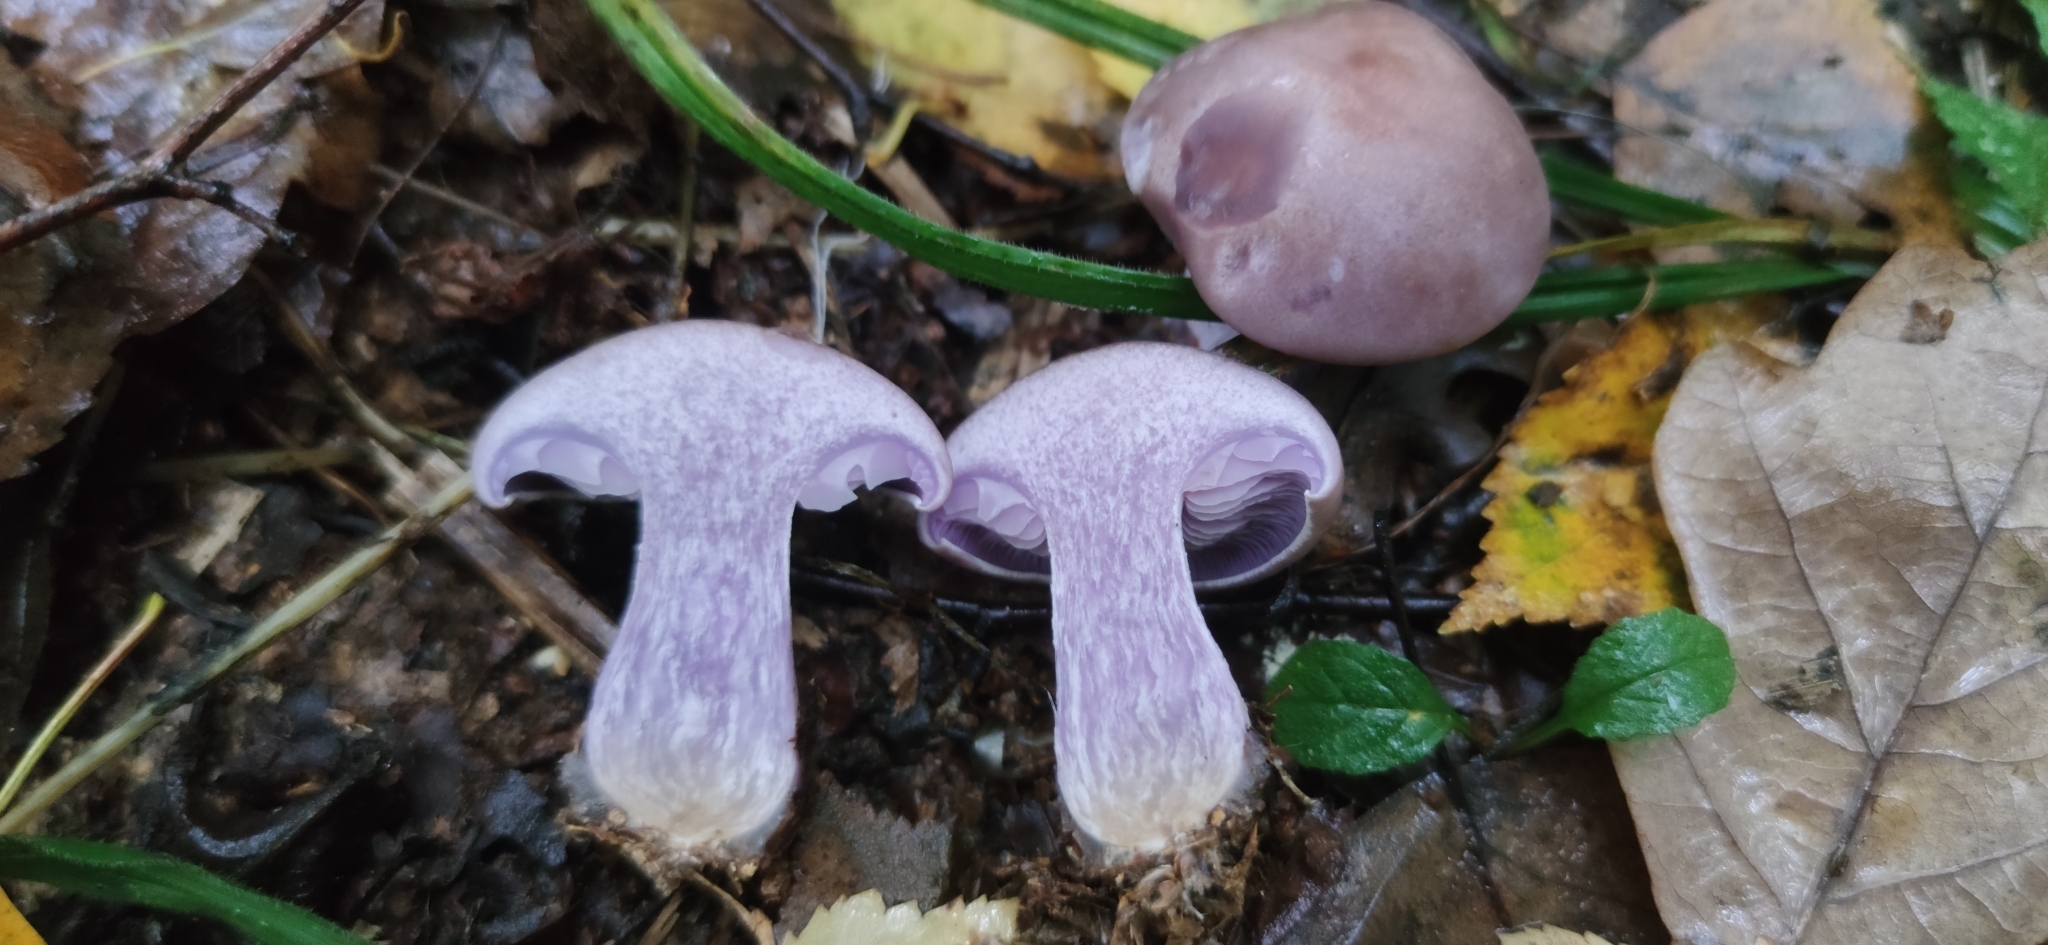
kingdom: Fungi
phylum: Basidiomycota
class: Agaricomycetes
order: Agaricales
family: Tricholomataceae
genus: Collybia
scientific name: Collybia
